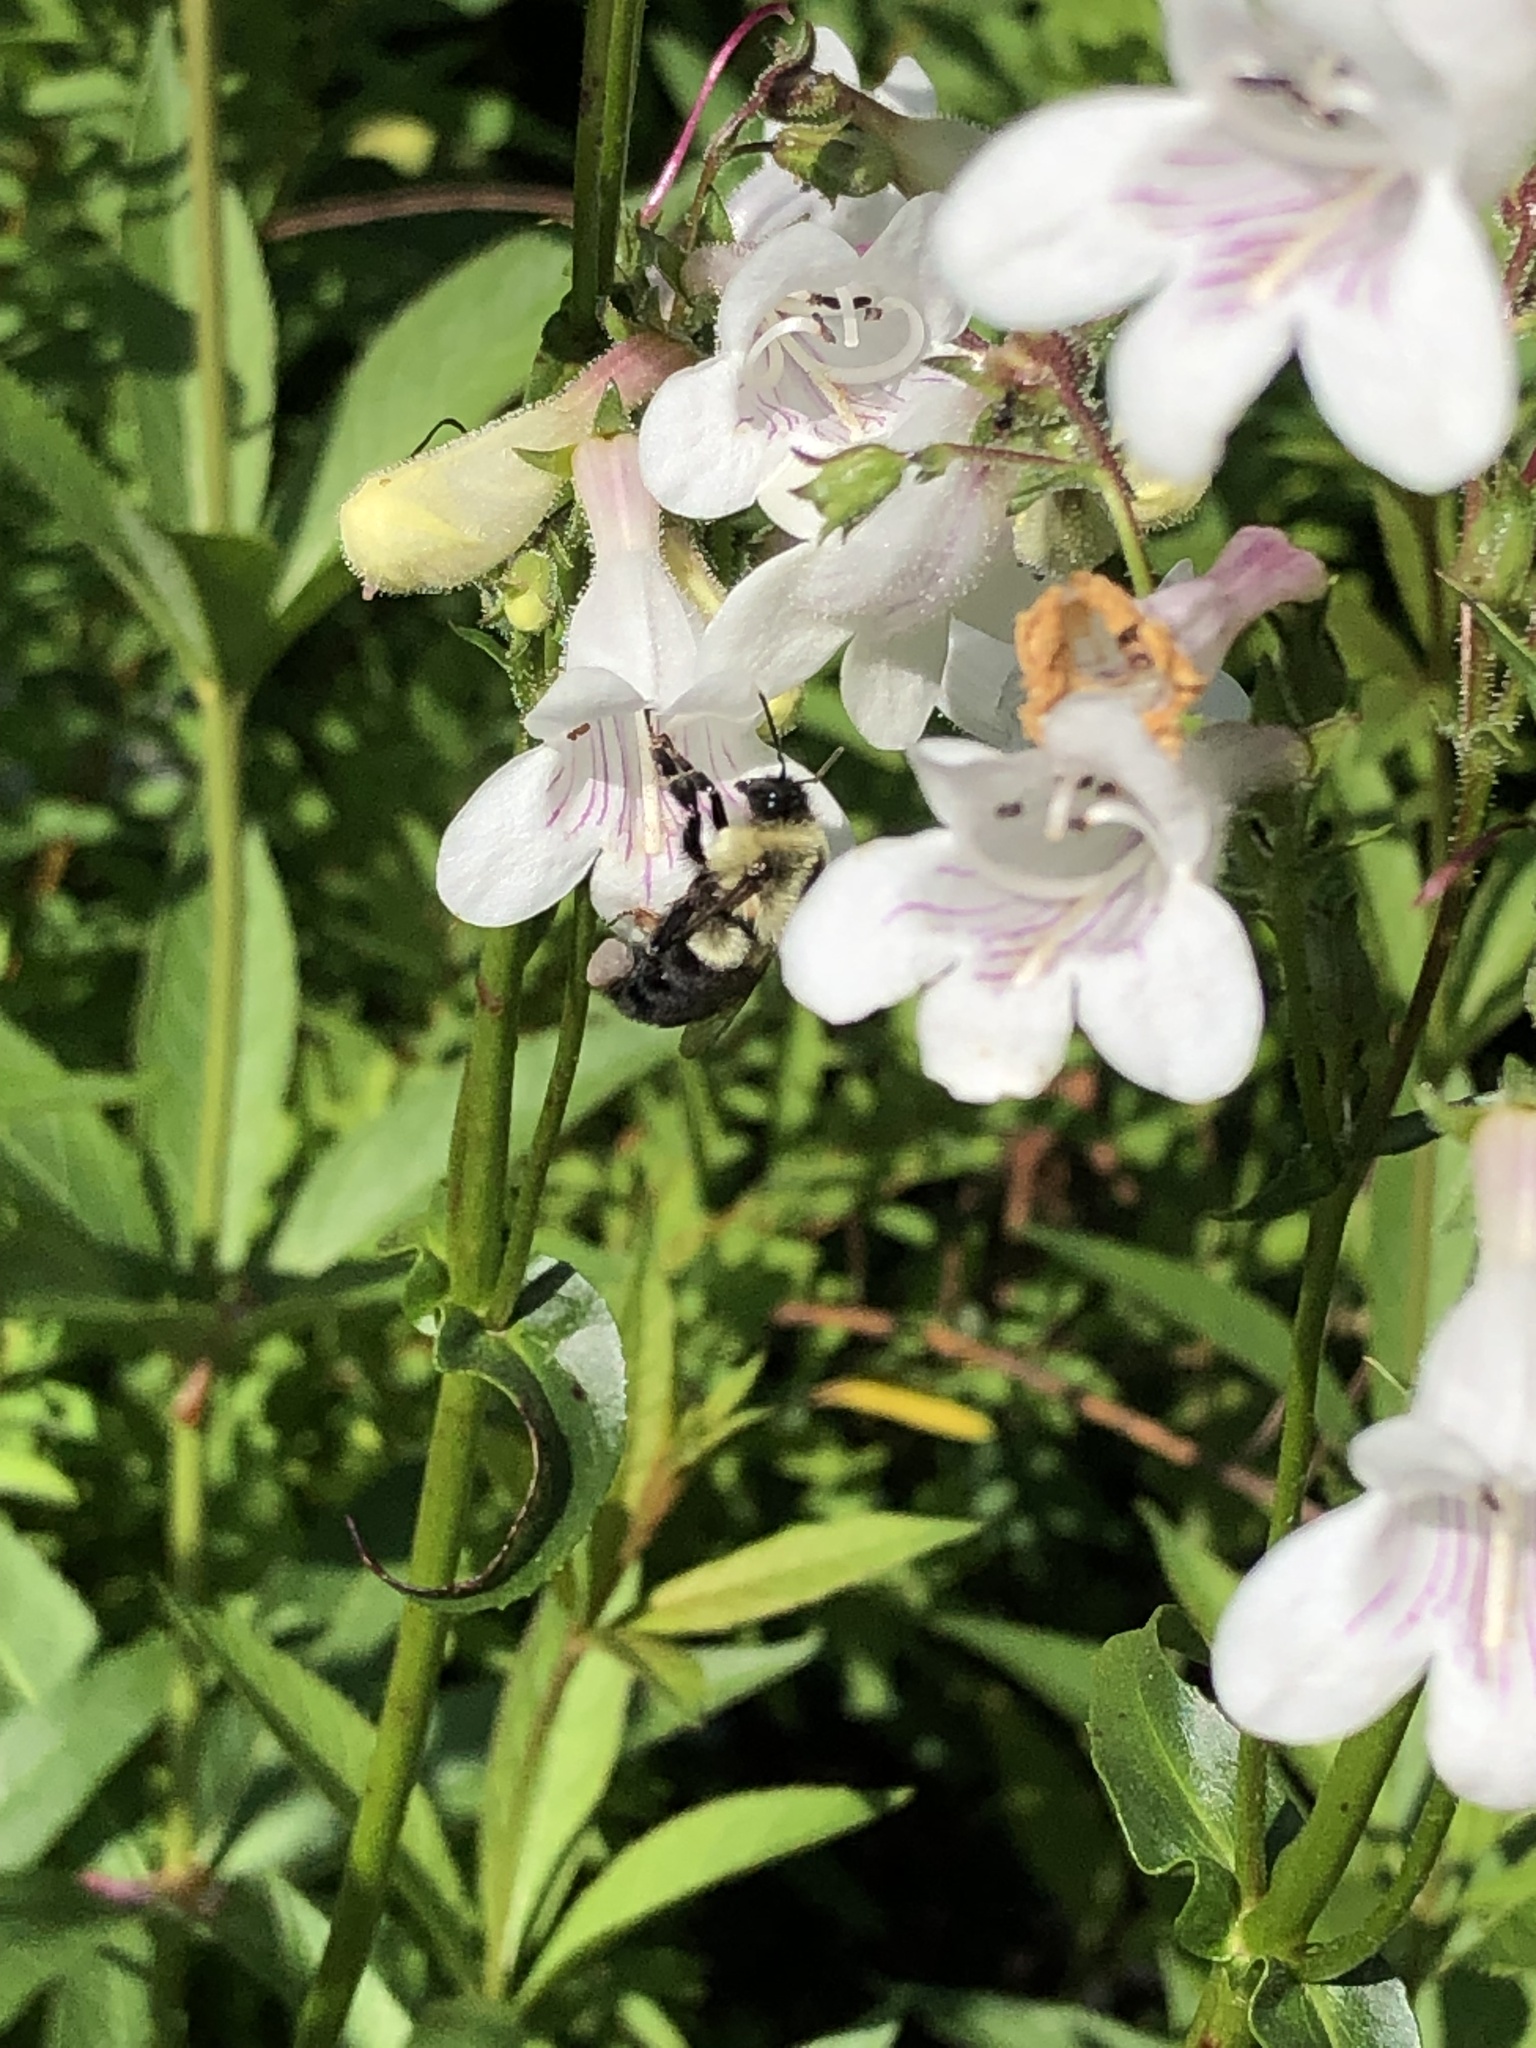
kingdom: Animalia
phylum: Arthropoda
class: Insecta
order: Hymenoptera
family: Apidae
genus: Bombus
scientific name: Bombus impatiens
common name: Common eastern bumble bee
